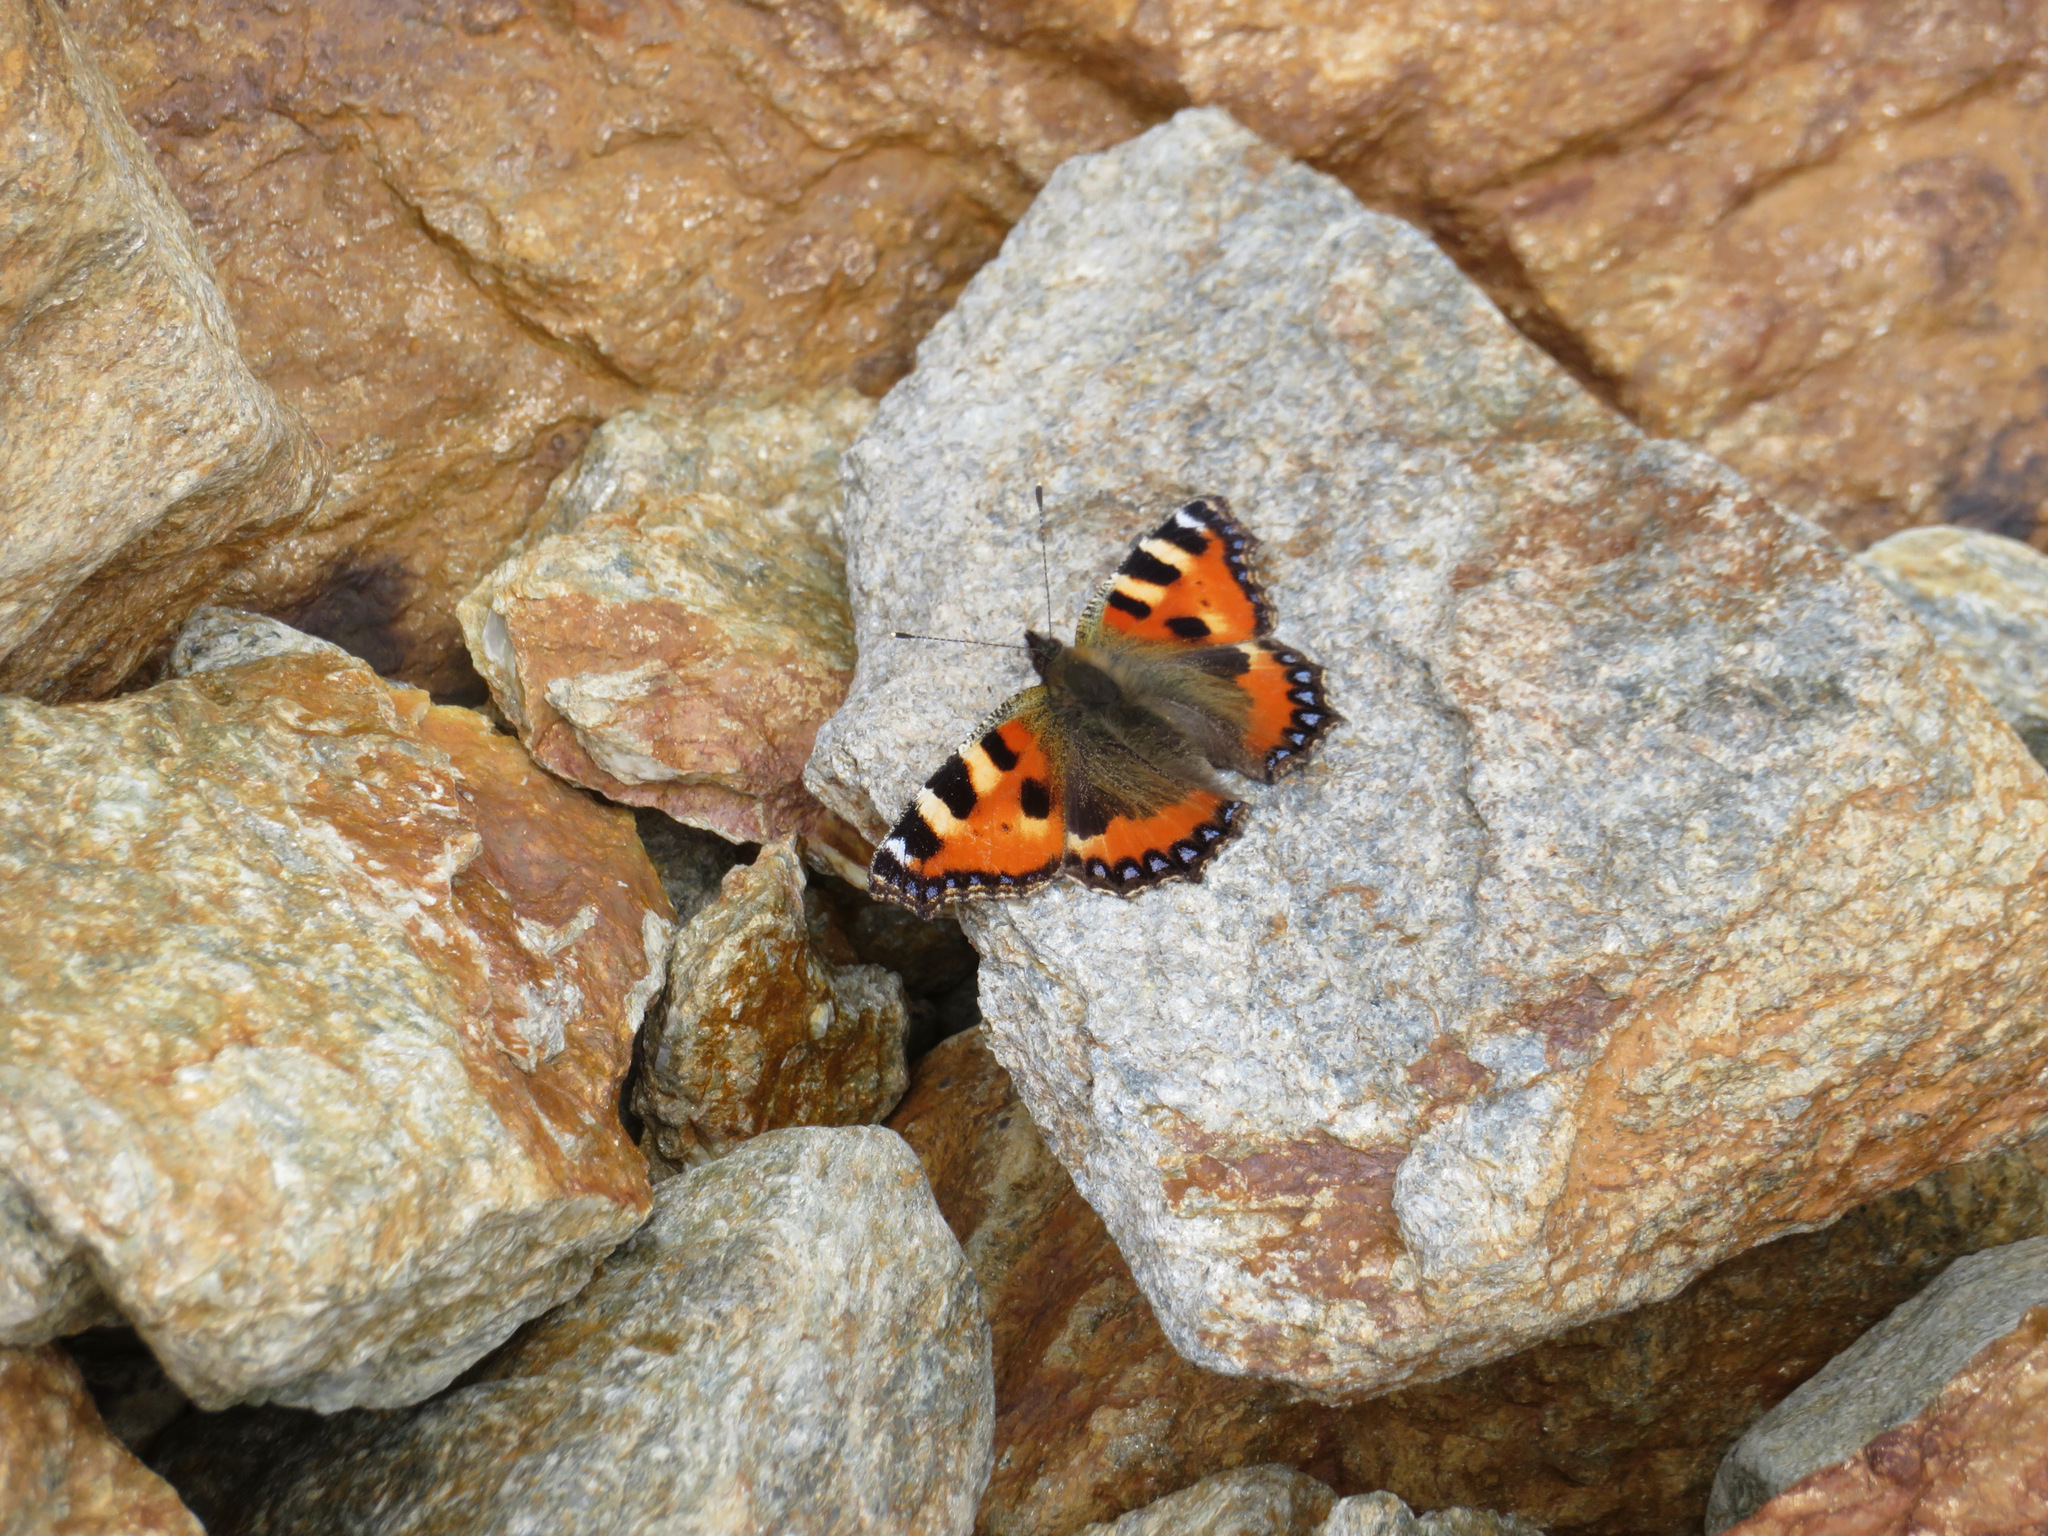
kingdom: Animalia
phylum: Arthropoda
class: Insecta
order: Lepidoptera
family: Nymphalidae
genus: Aglais
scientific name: Aglais urticae
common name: Small tortoiseshell
